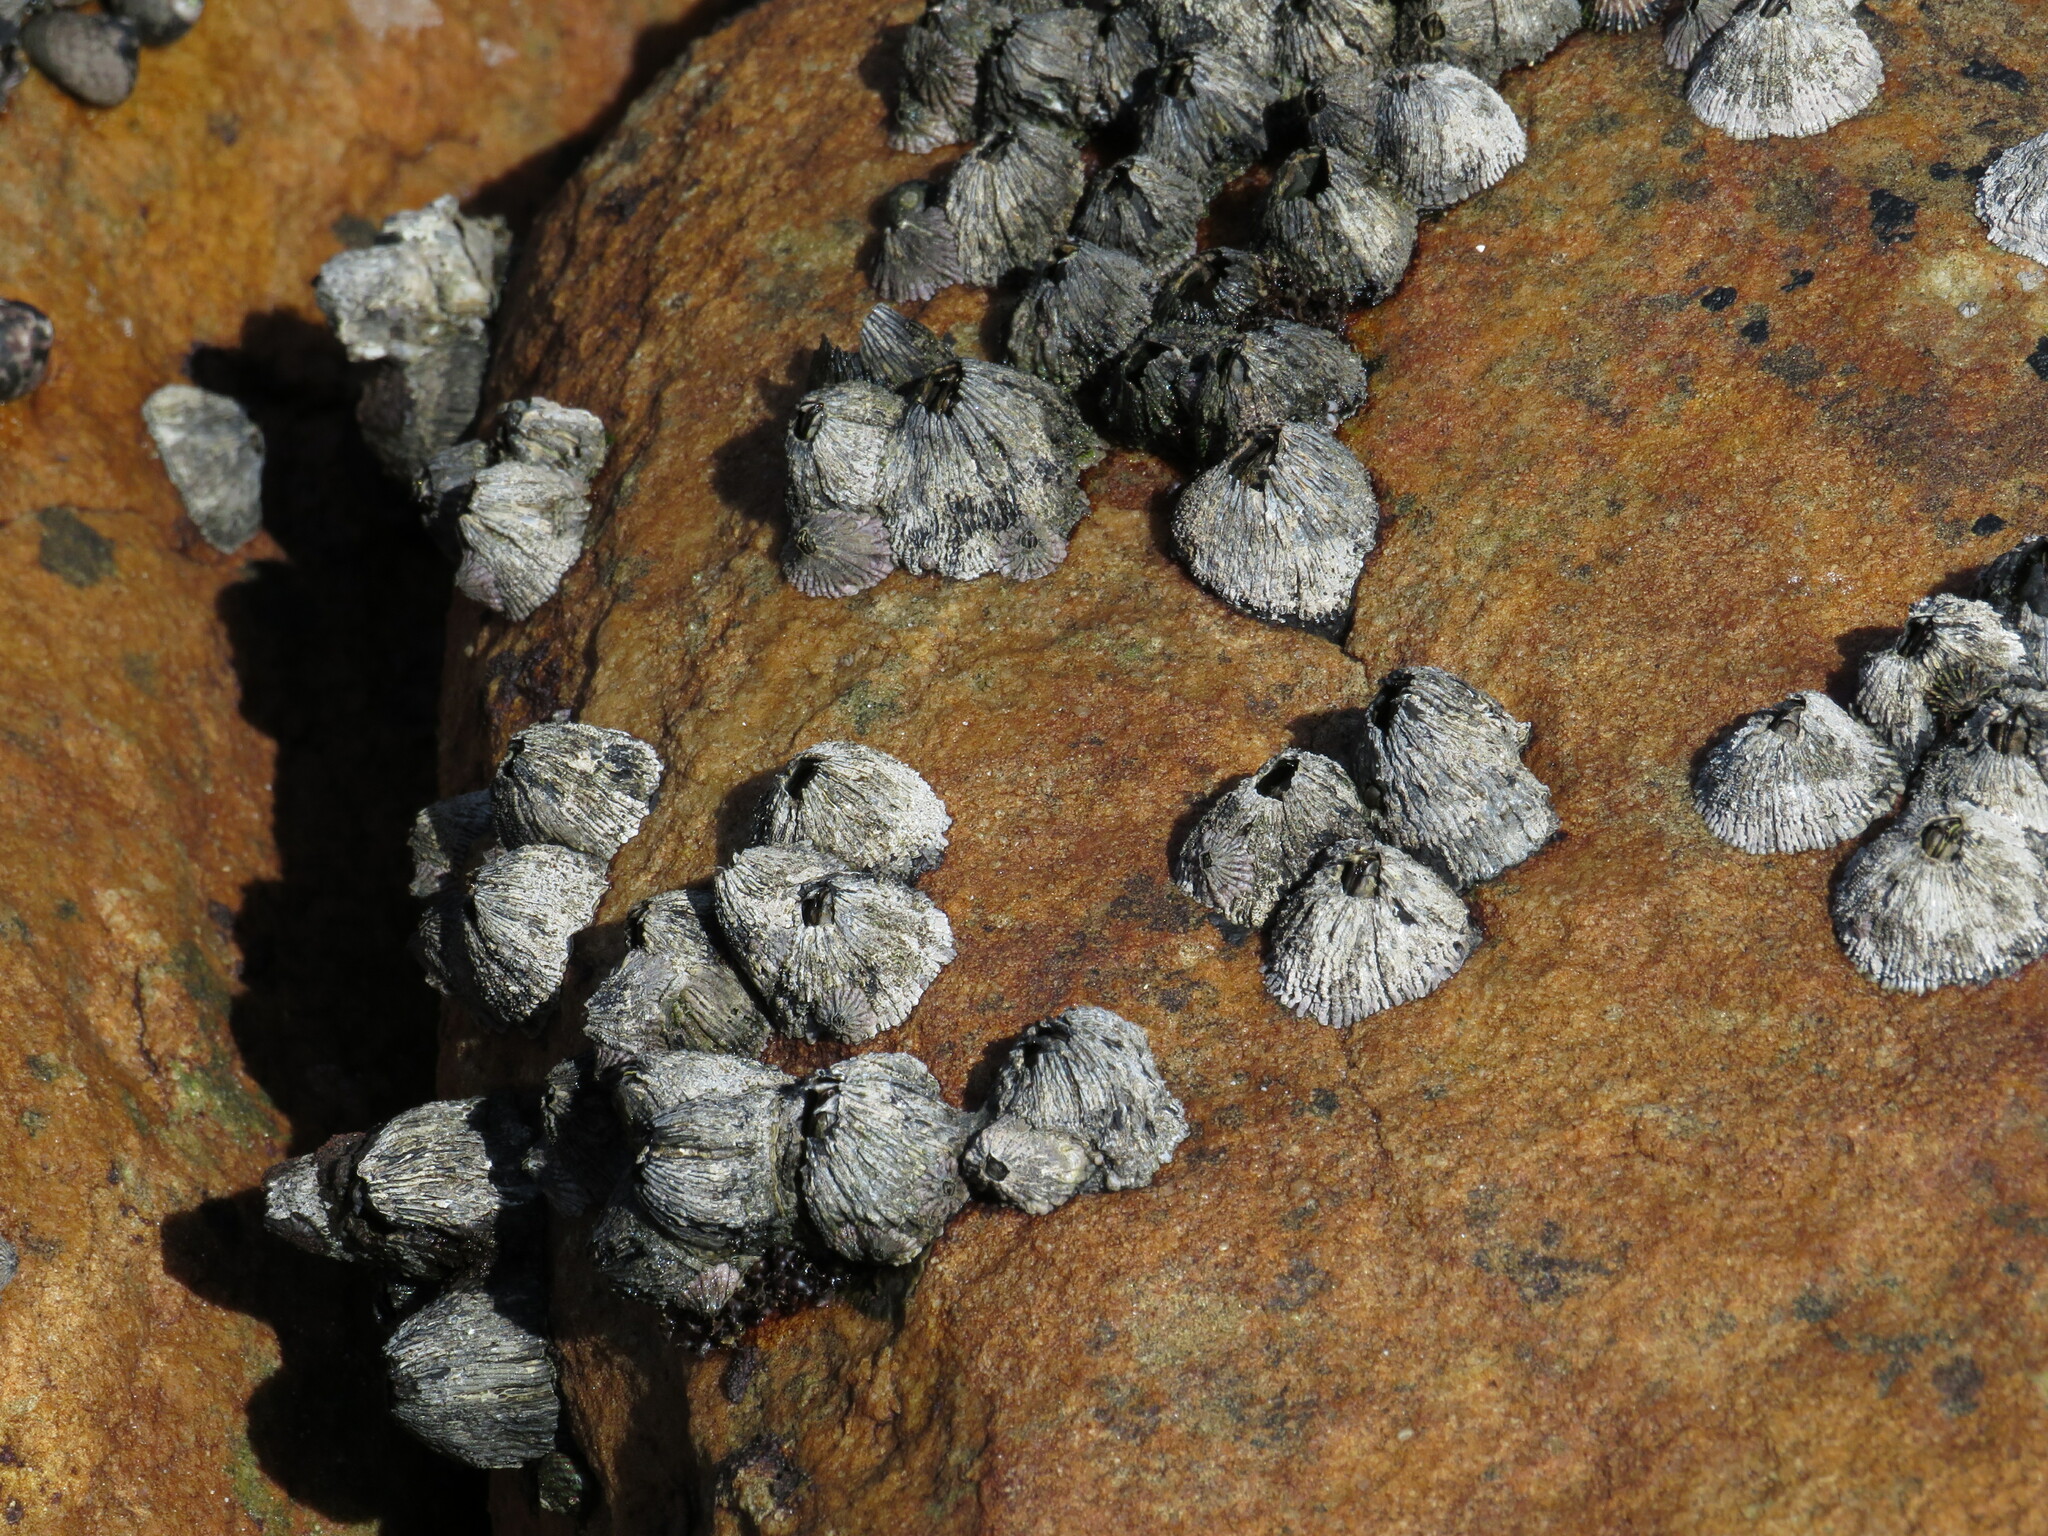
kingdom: Animalia
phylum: Arthropoda
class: Maxillopoda
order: Sessilia
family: Tetraclitidae
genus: Tetraclita
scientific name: Tetraclita serrata
